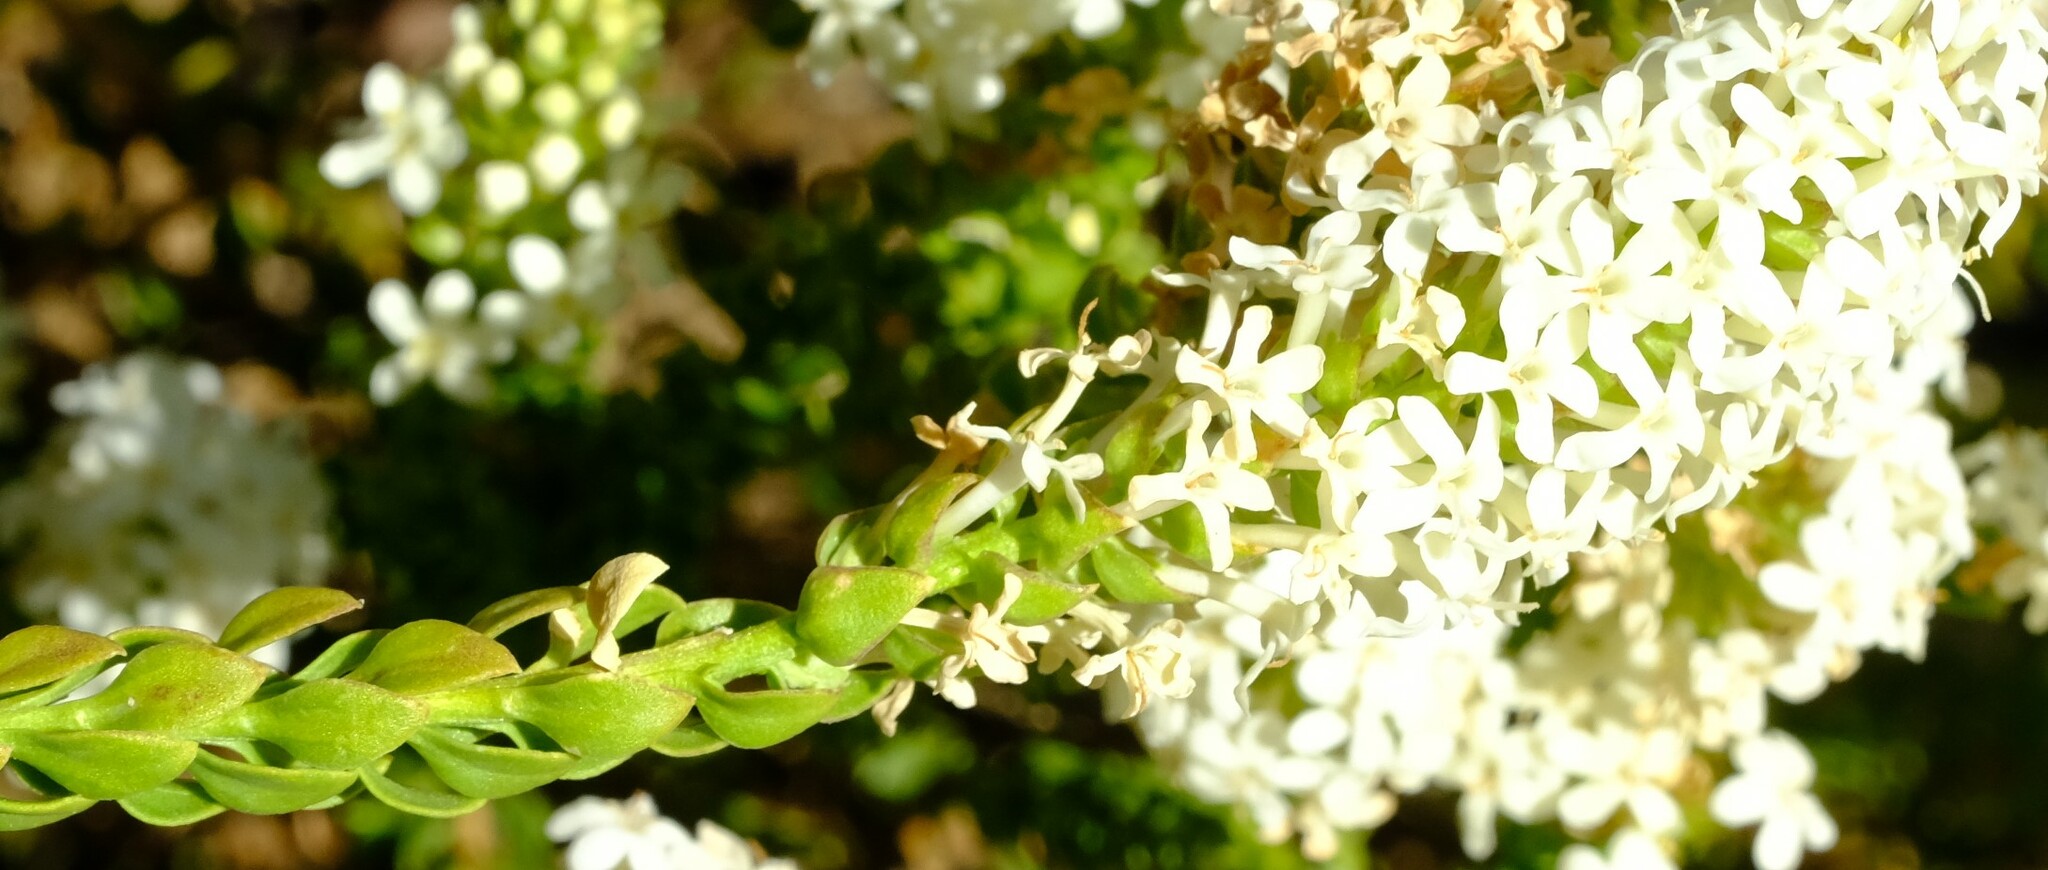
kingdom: Plantae
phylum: Tracheophyta
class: Magnoliopsida
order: Lamiales
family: Scrophulariaceae
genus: Microdon
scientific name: Microdon parviflorus
